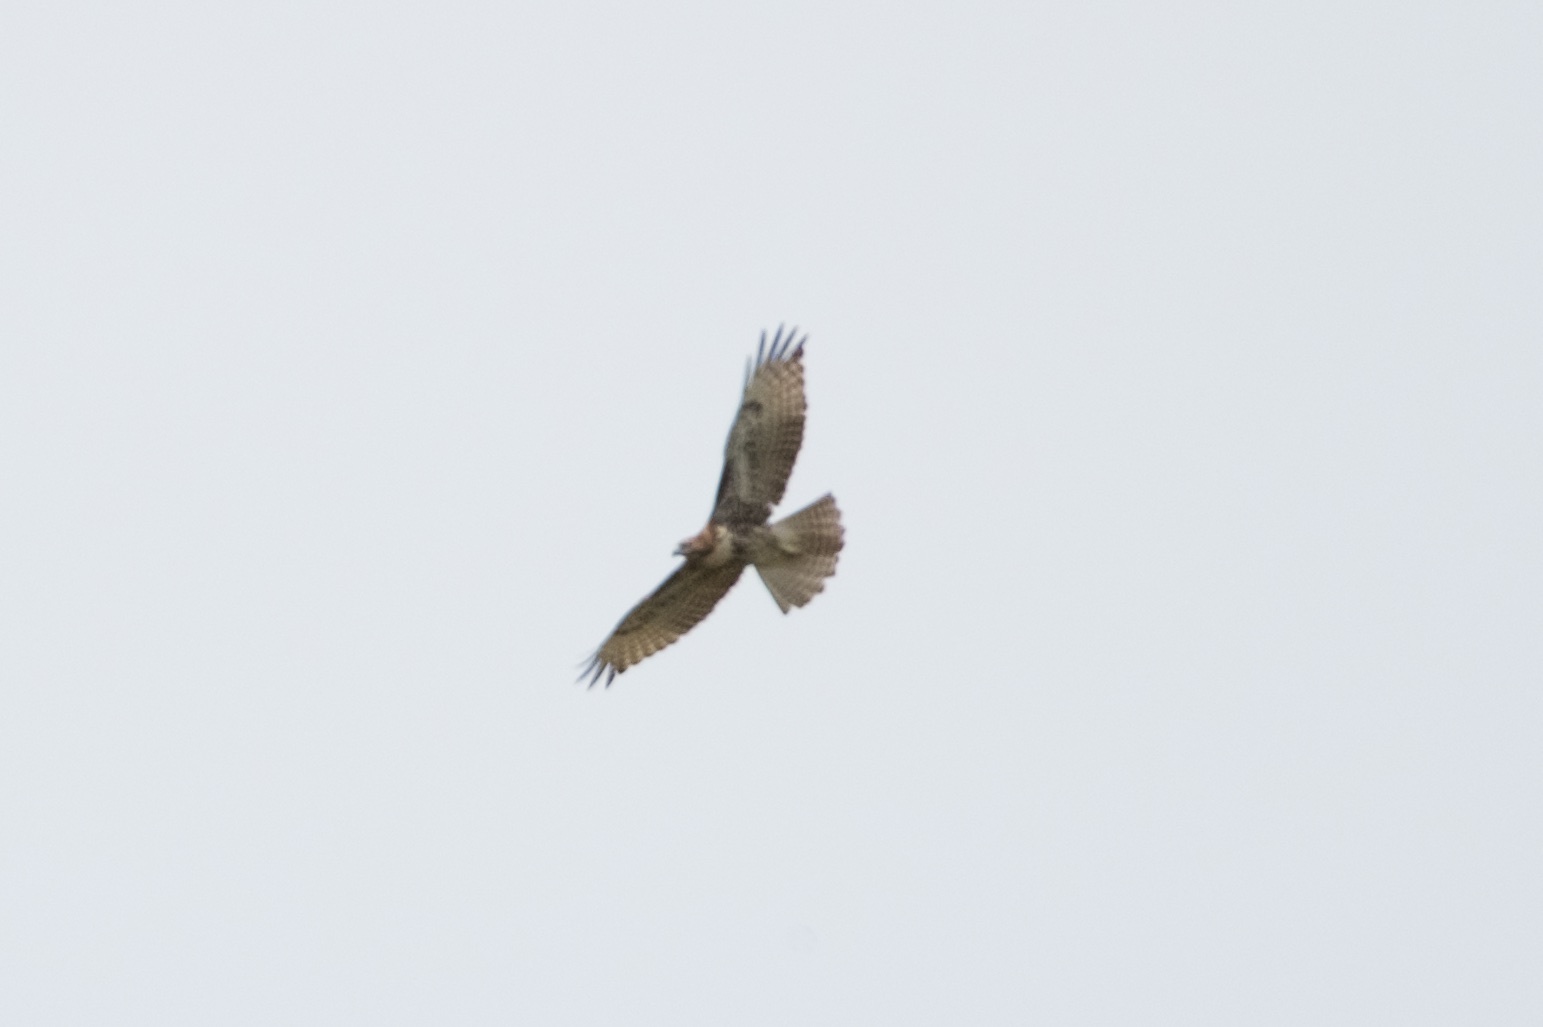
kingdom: Animalia
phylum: Chordata
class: Aves
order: Accipitriformes
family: Accipitridae
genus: Buteo
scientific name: Buteo jamaicensis
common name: Red-tailed hawk
